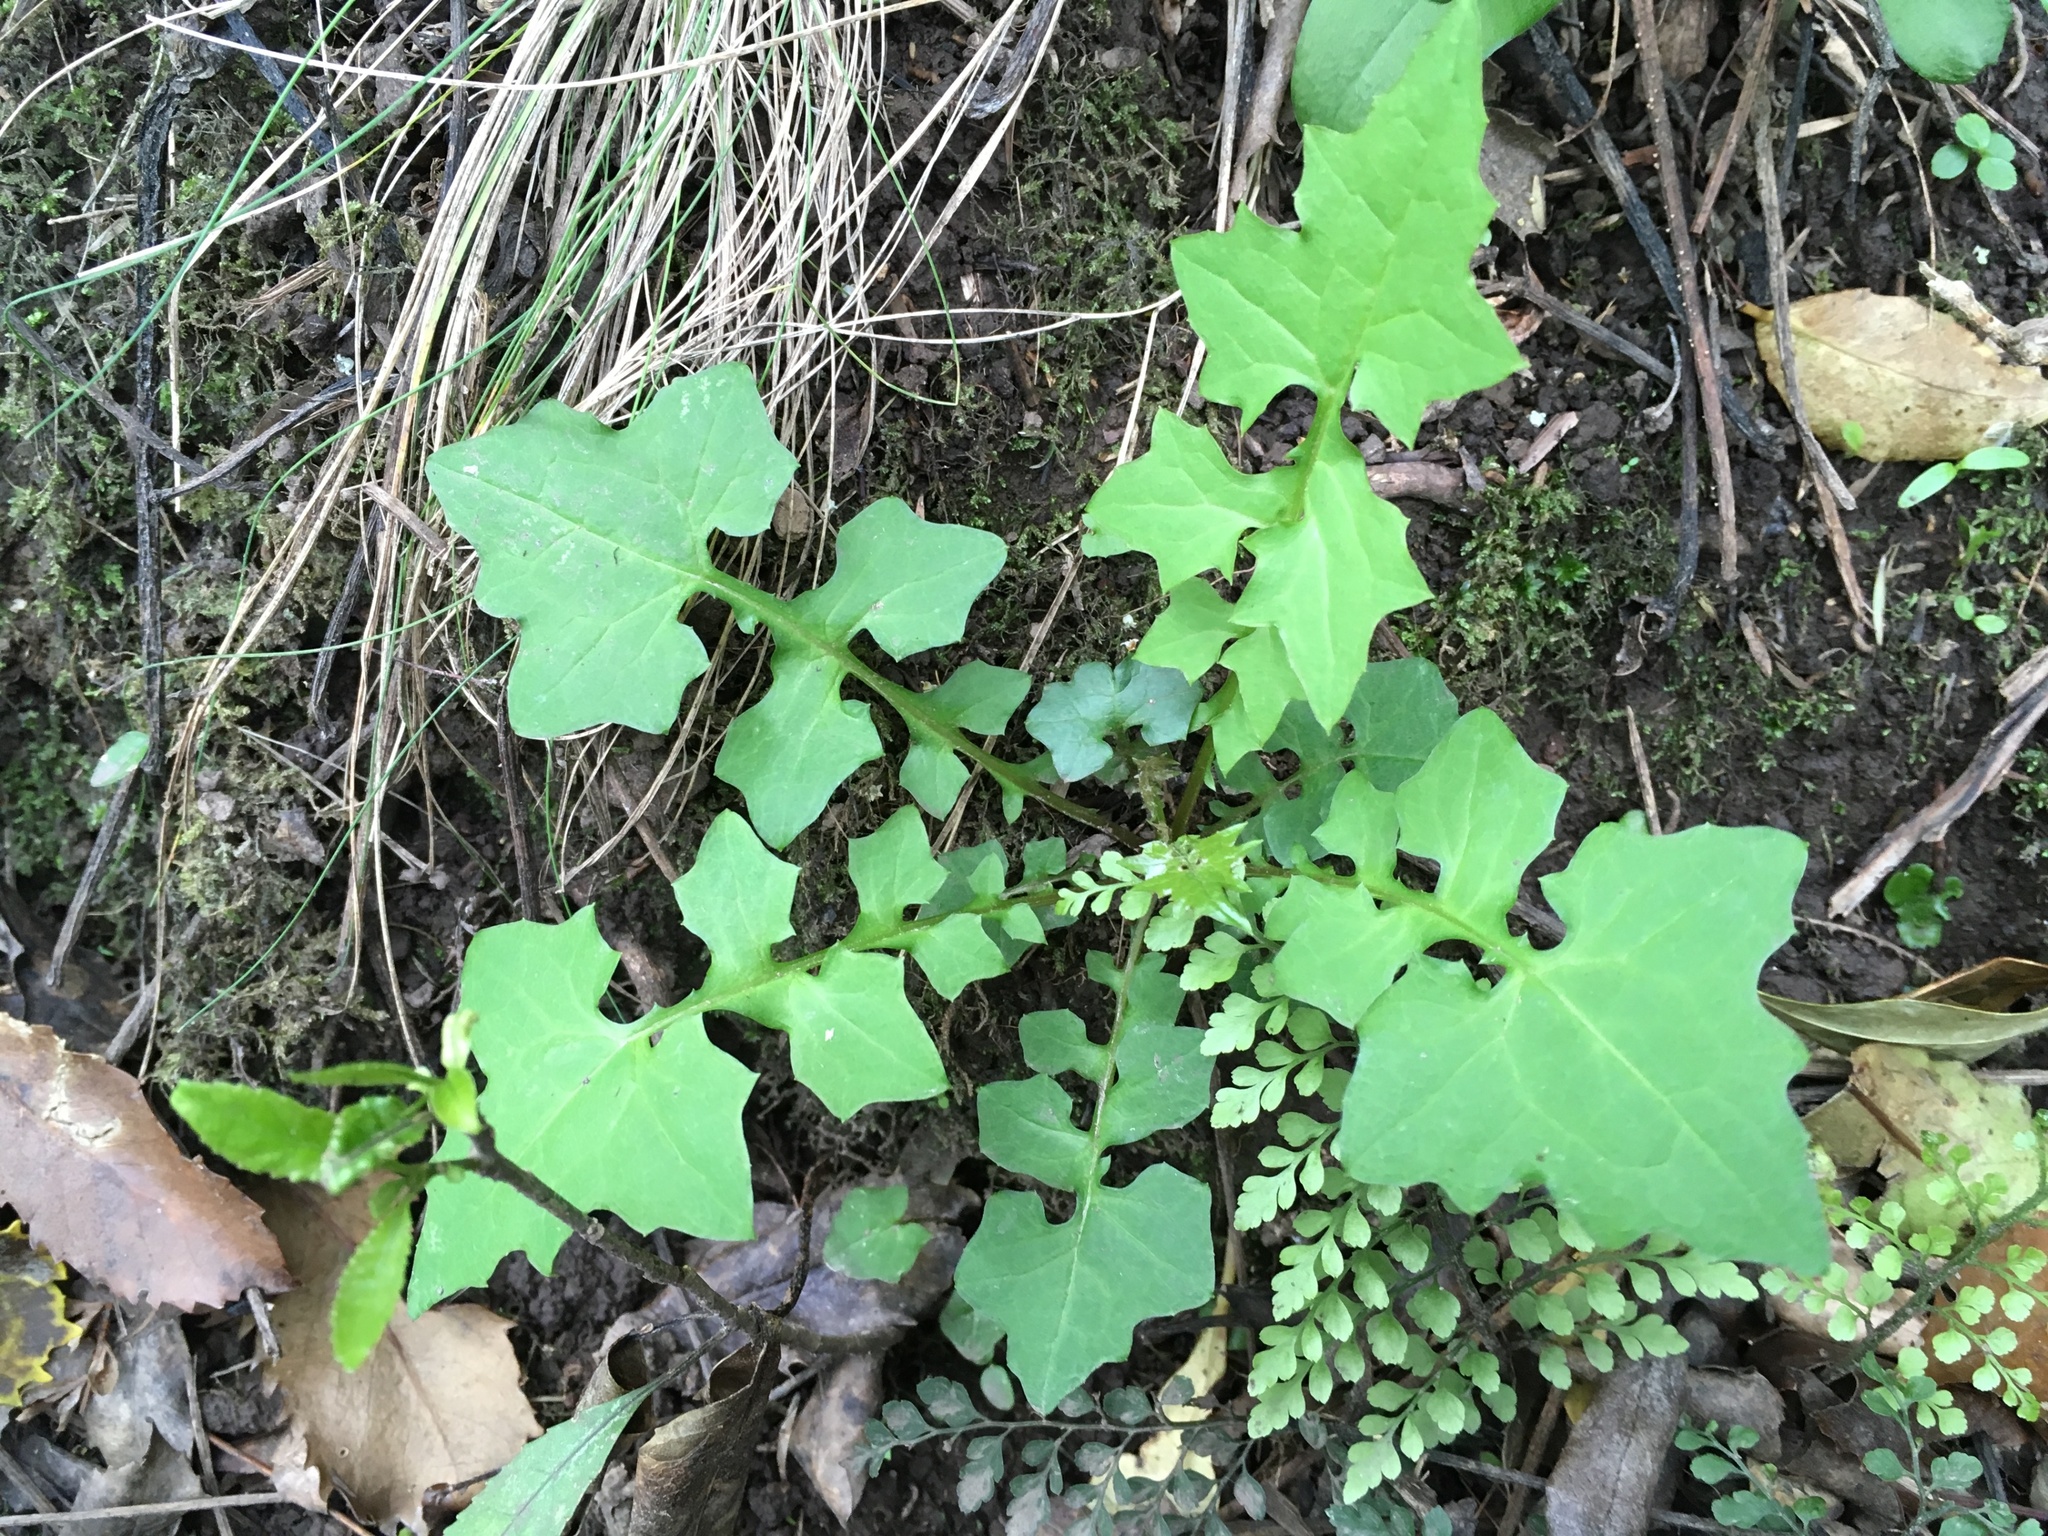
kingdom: Plantae
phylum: Tracheophyta
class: Magnoliopsida
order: Asterales
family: Asteraceae
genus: Mycelis
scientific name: Mycelis muralis
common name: Wall lettuce
